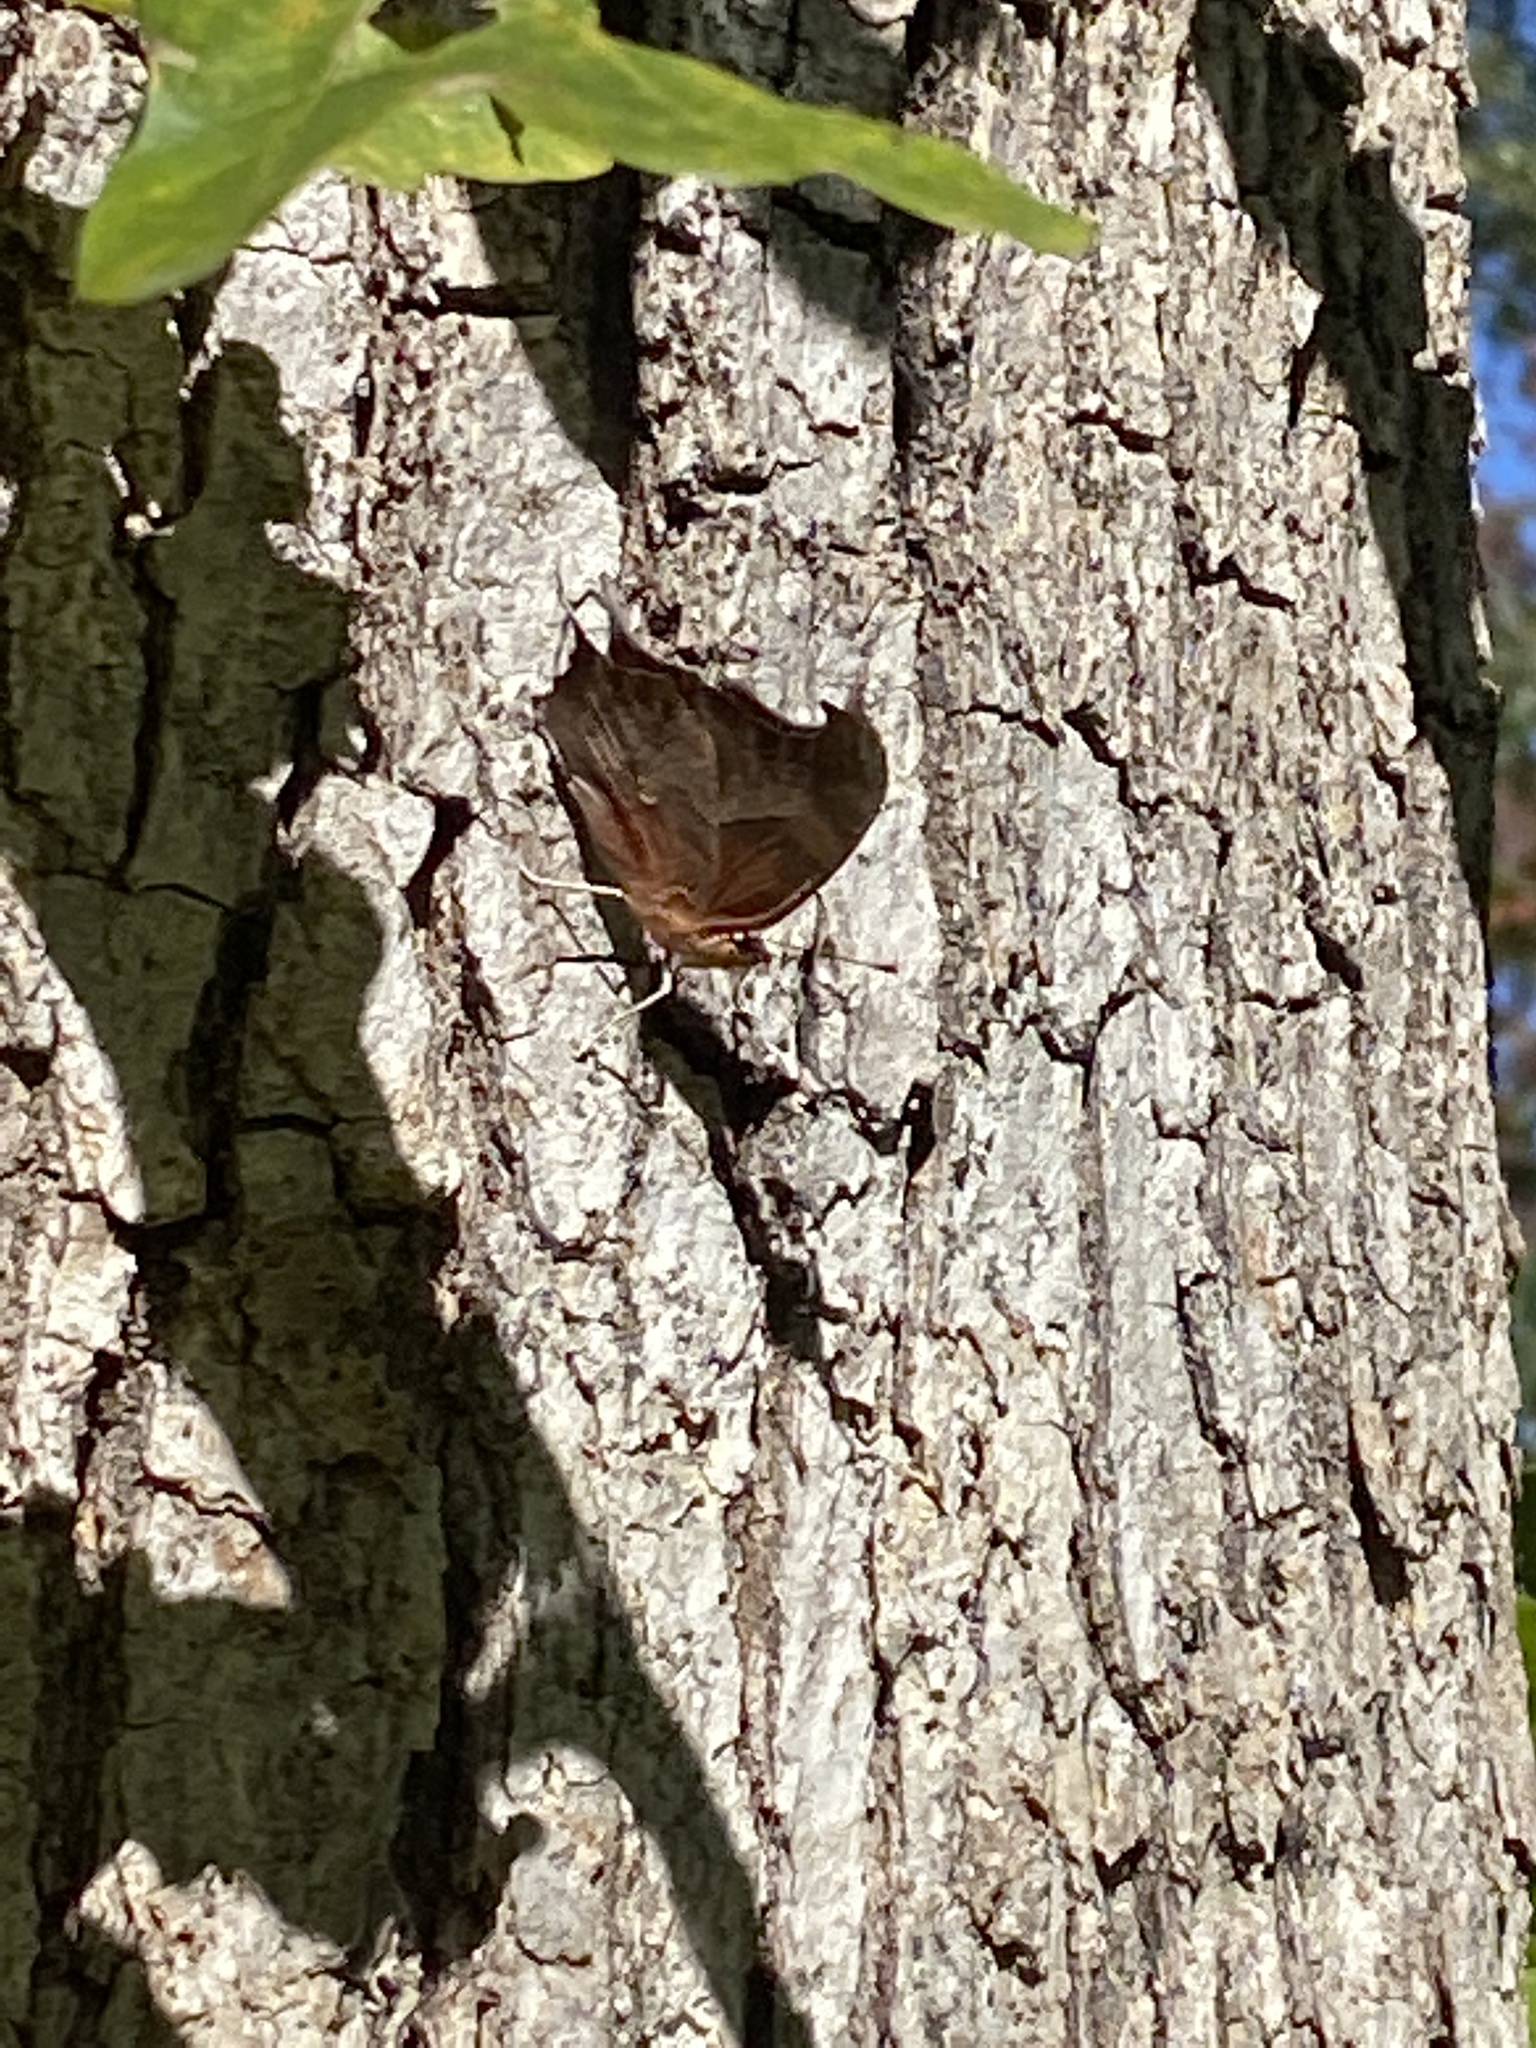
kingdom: Animalia
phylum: Arthropoda
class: Insecta
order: Lepidoptera
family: Nymphalidae
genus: Polygonia
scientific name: Polygonia interrogationis
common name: Question mark
